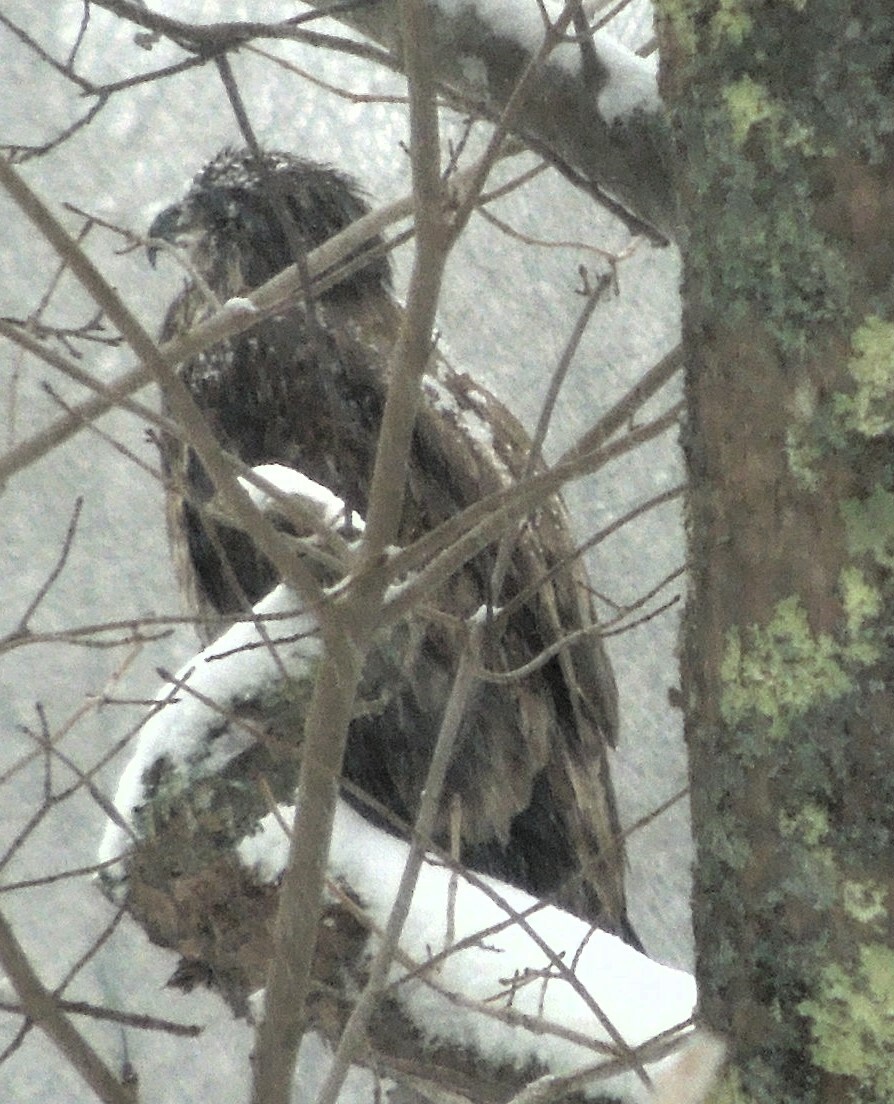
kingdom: Animalia
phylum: Chordata
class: Aves
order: Accipitriformes
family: Accipitridae
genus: Haliaeetus
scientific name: Haliaeetus leucocephalus
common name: Bald eagle
